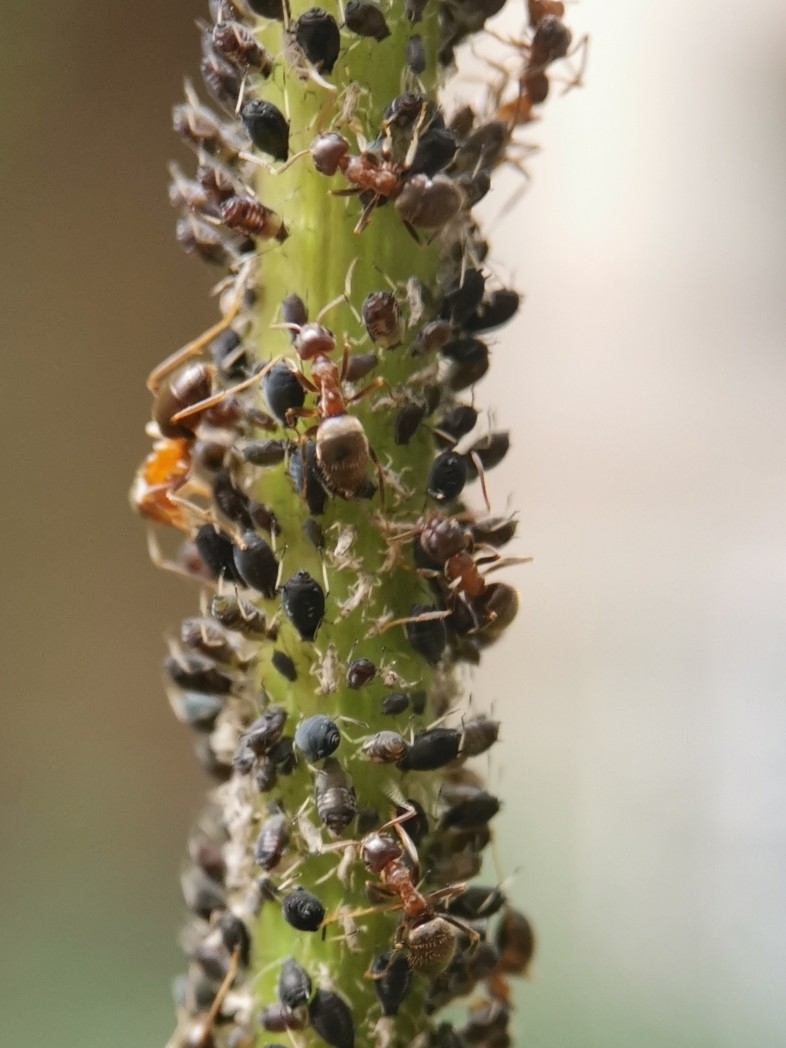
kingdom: Animalia
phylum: Arthropoda
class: Insecta
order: Hymenoptera
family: Formicidae
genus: Lasius
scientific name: Lasius emarginatus
